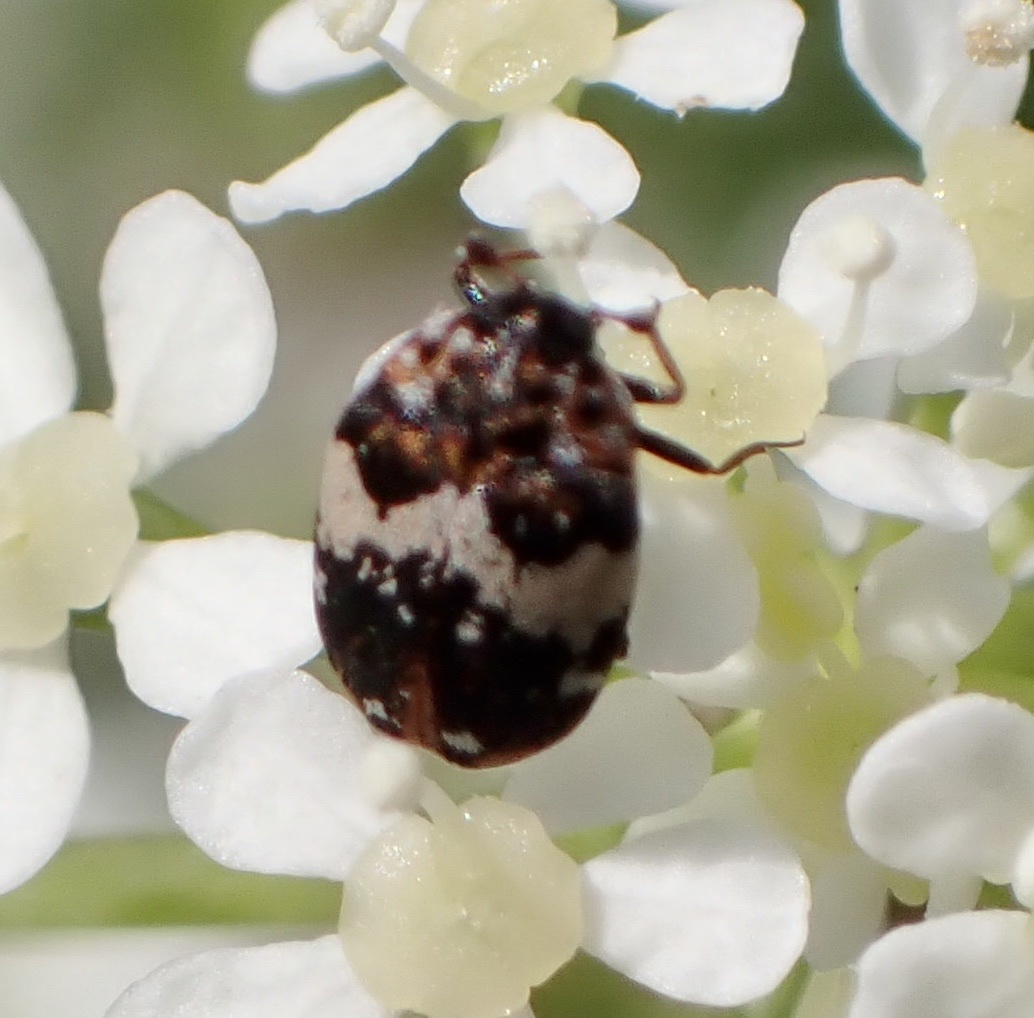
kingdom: Animalia
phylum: Arthropoda
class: Insecta
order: Coleoptera
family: Dermestidae
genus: Anthrenus
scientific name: Anthrenus pimpinellae
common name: Dermestid beetle
